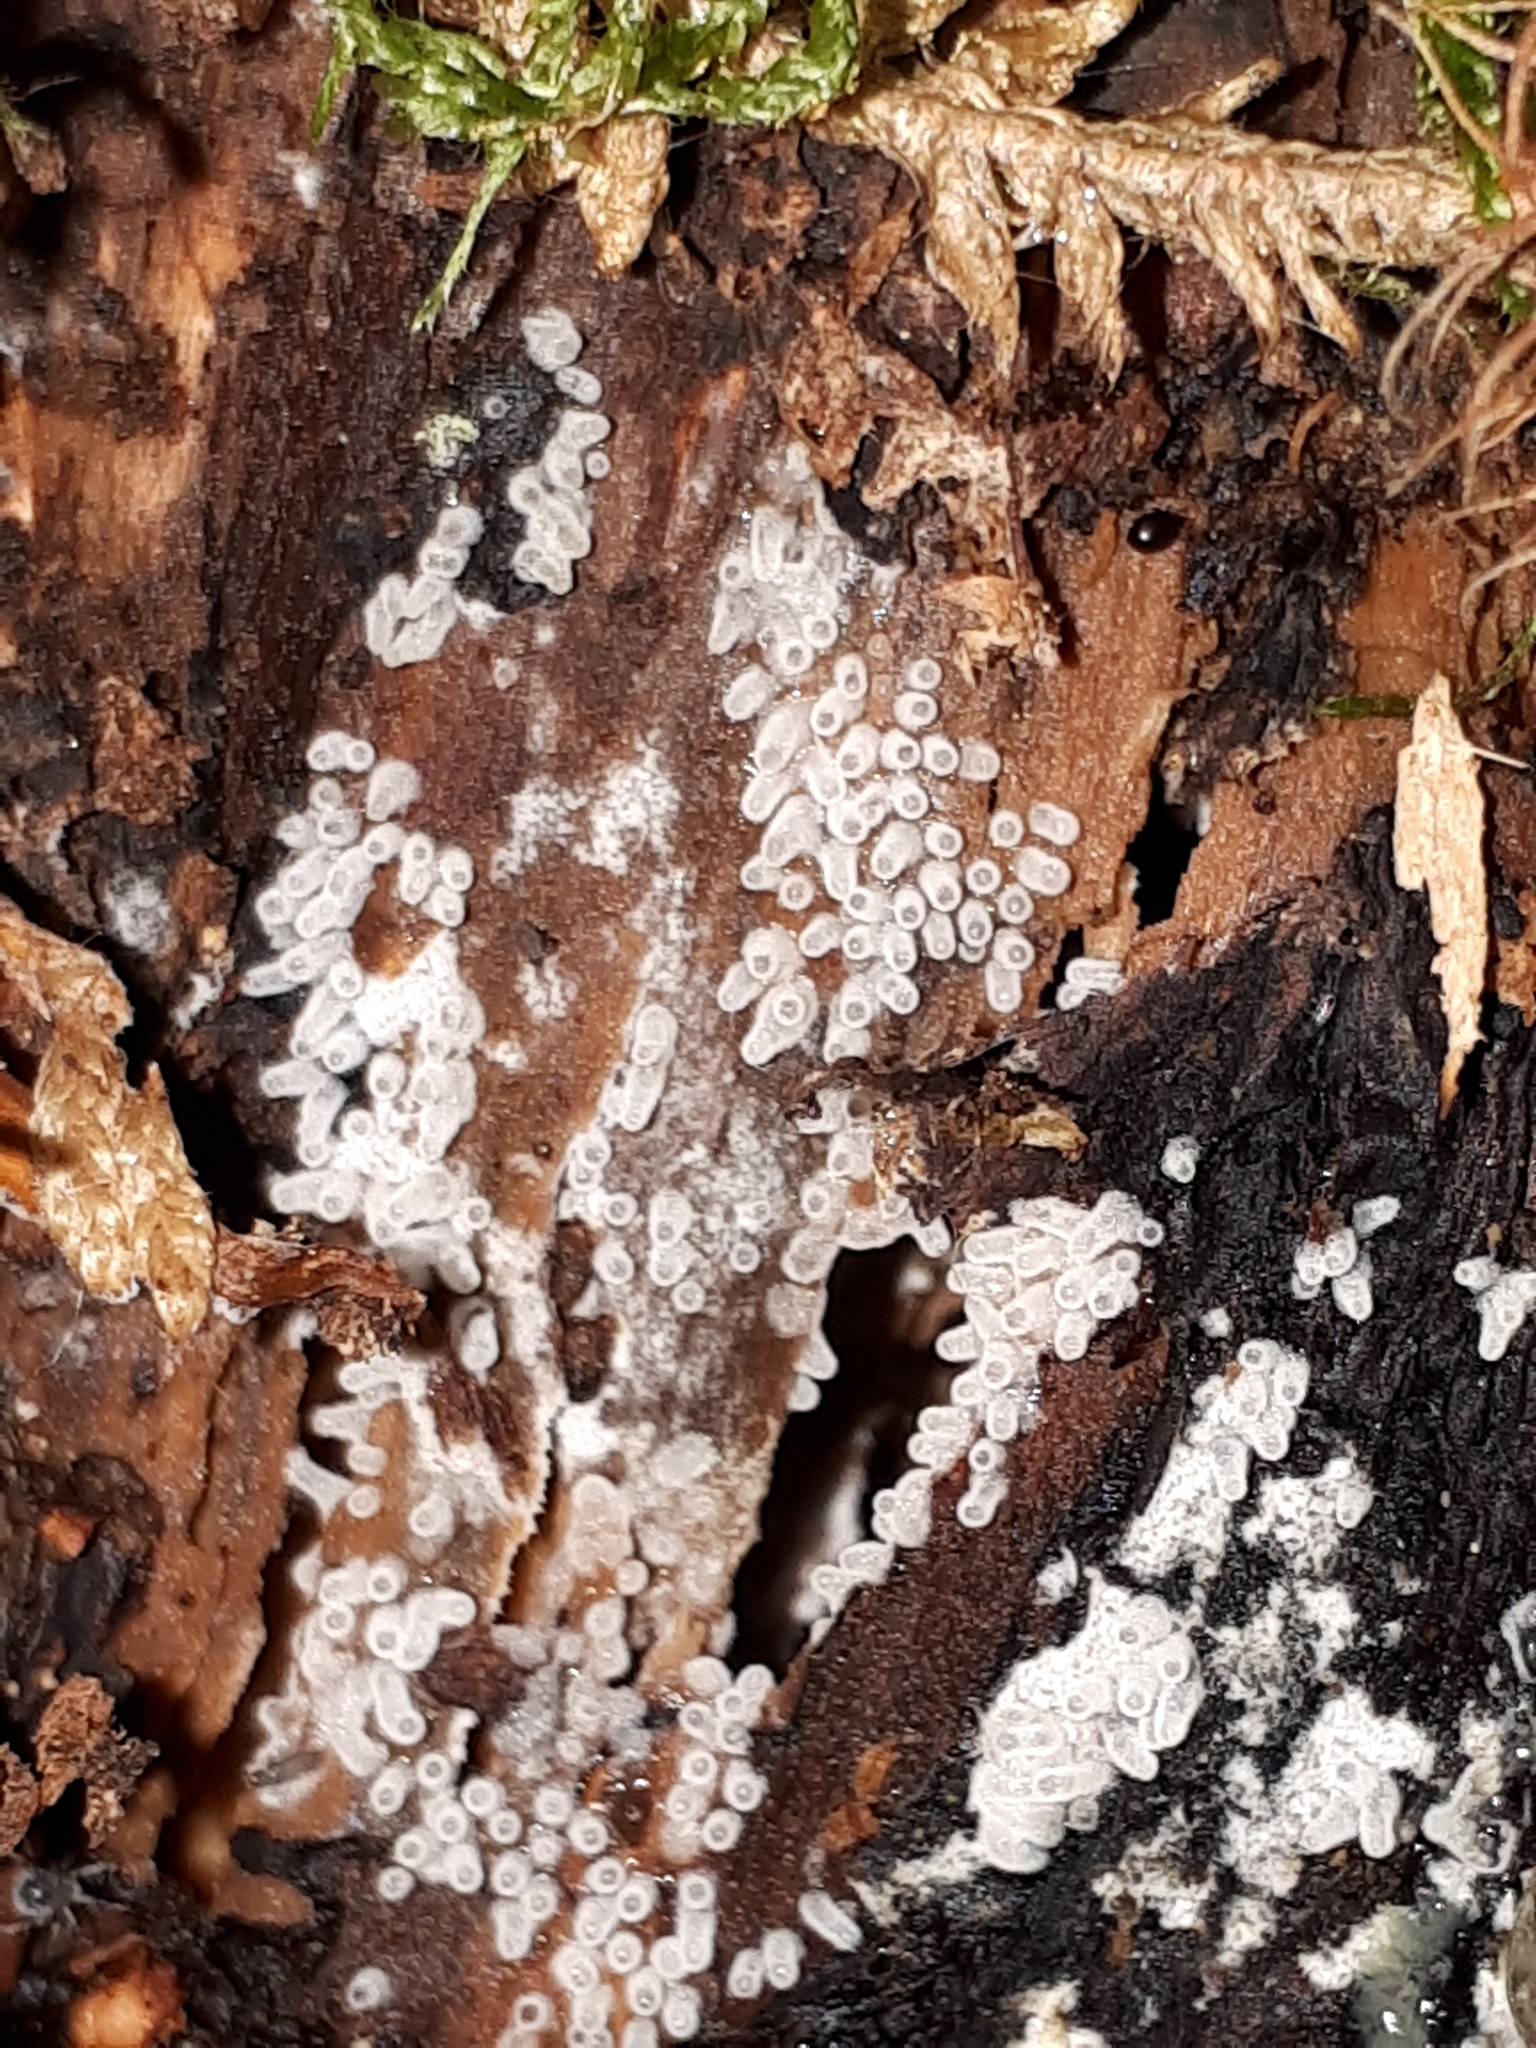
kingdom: Protozoa
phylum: Mycetozoa
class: Protosteliomycetes
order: Ceratiomyxales
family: Ceratiomyxaceae
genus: Ceratiomyxa
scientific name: Ceratiomyxa fruticulosa
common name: Honeycomb coral slime mold
